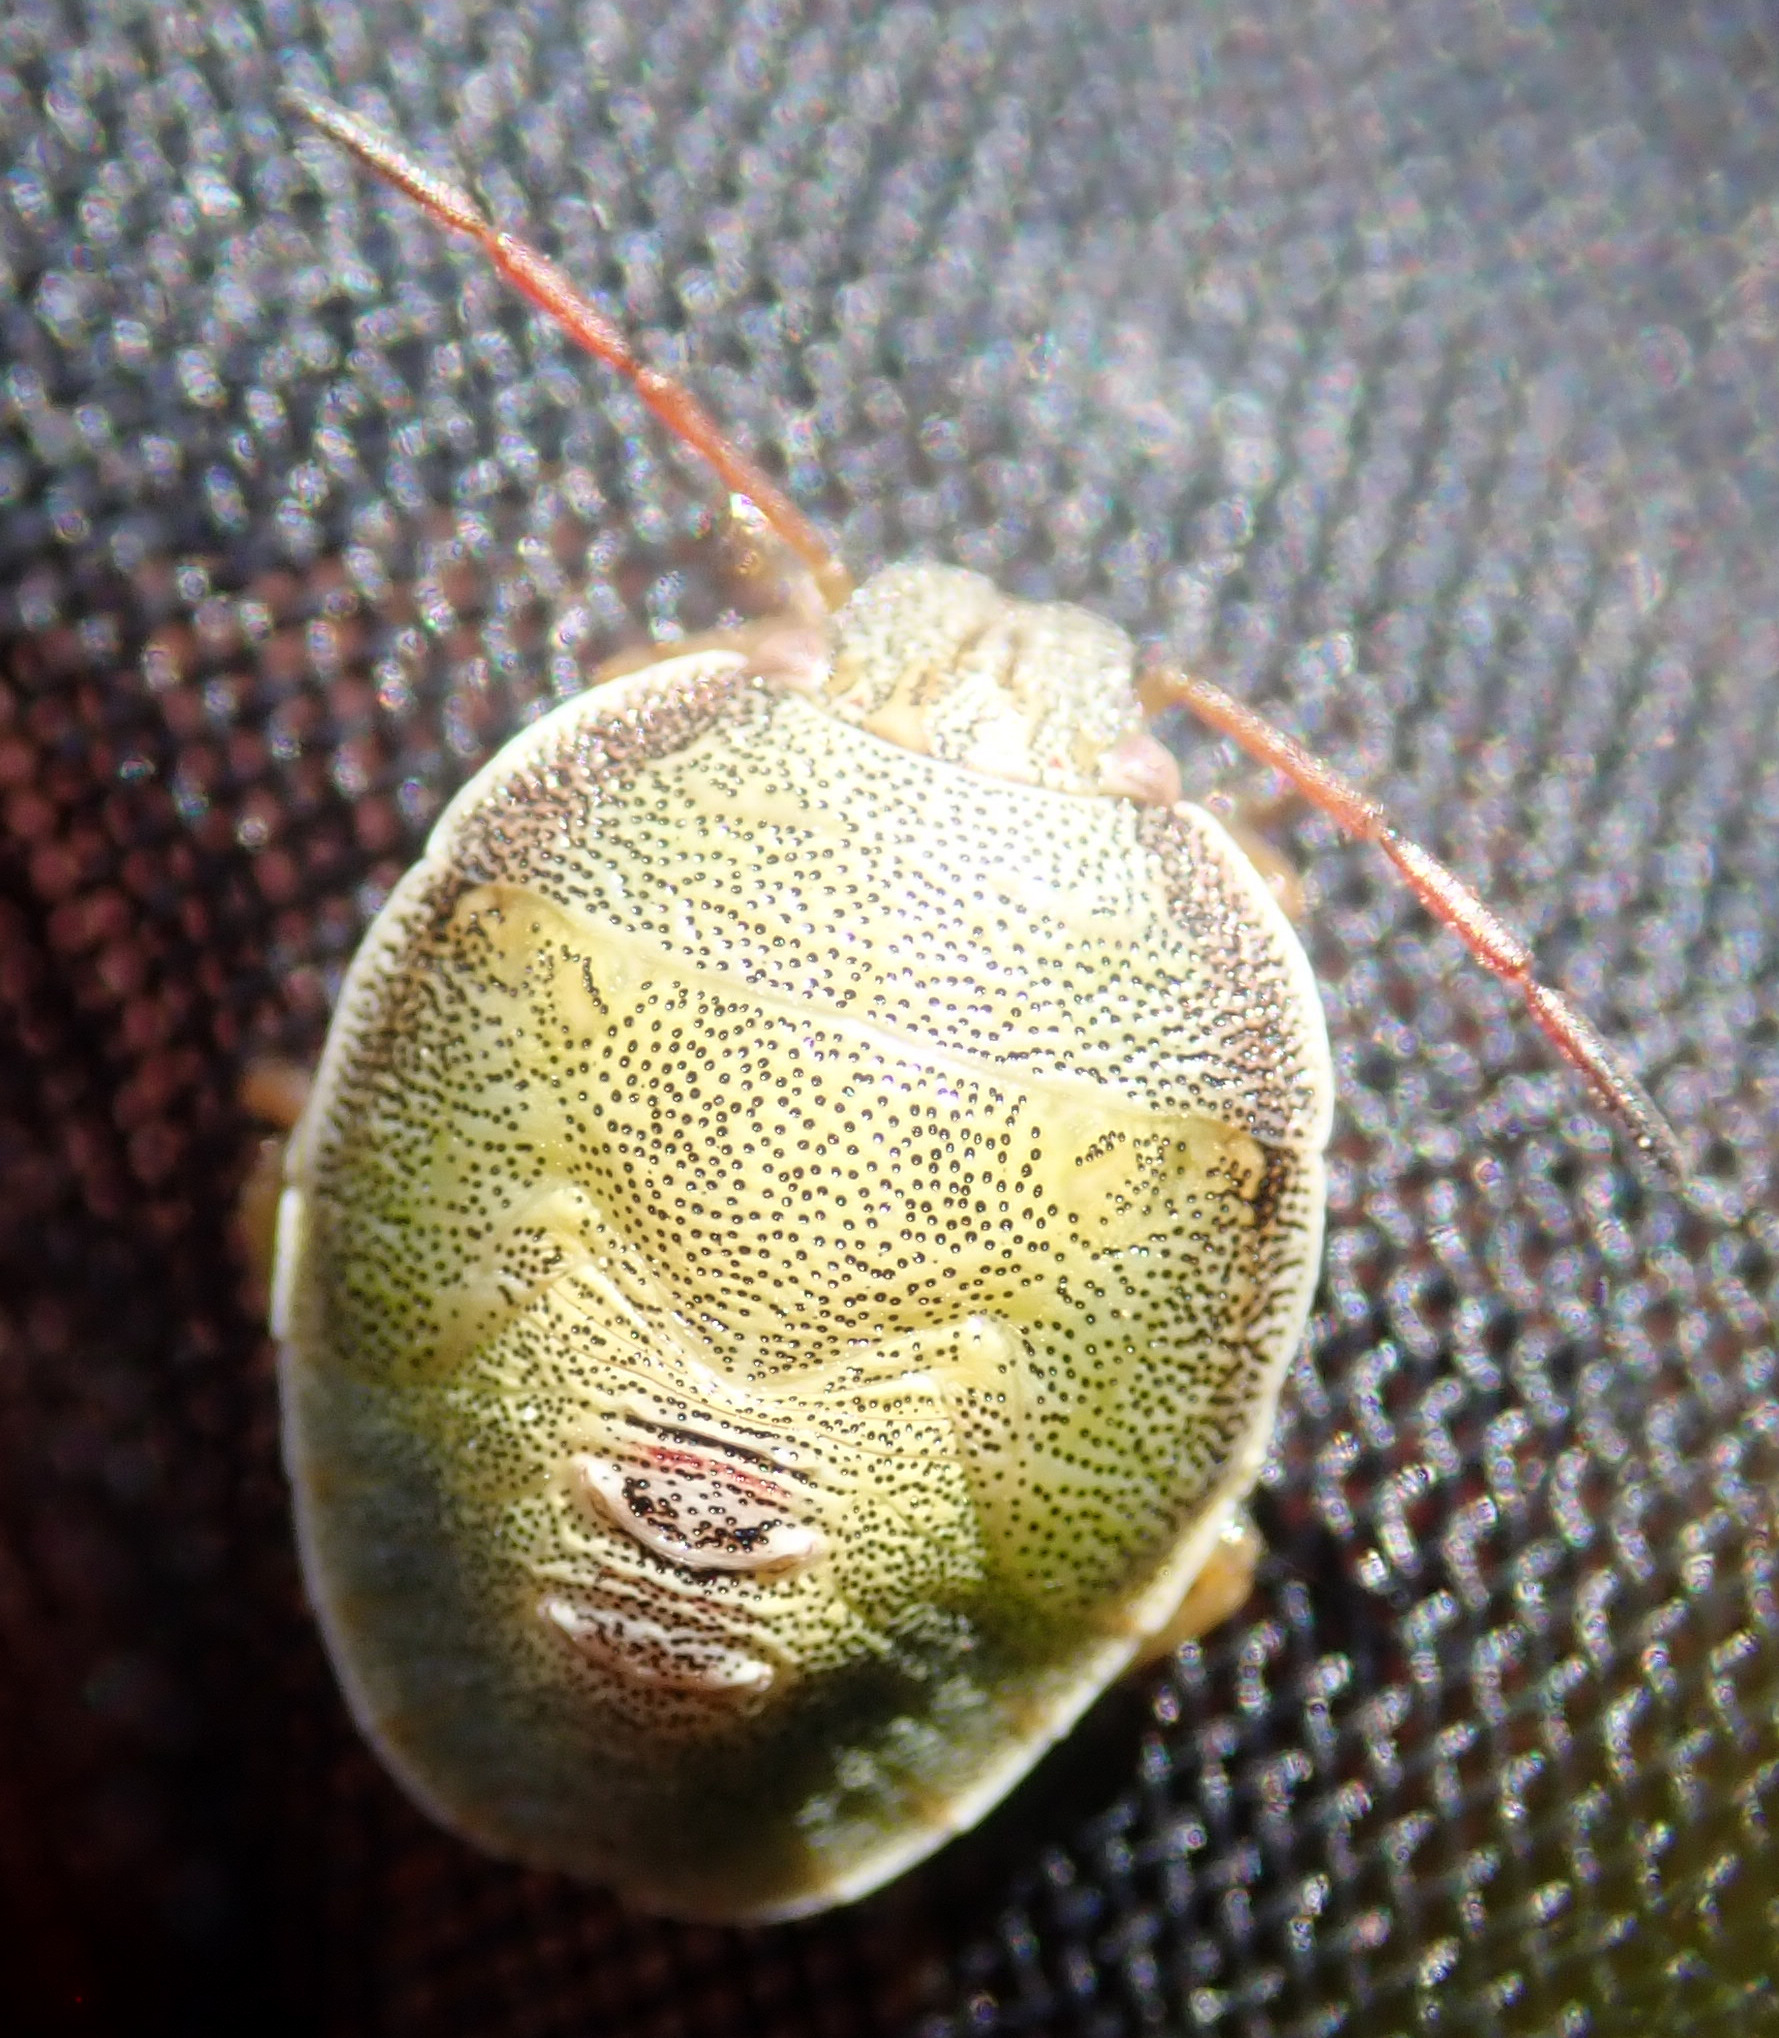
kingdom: Animalia
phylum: Arthropoda
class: Insecta
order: Hemiptera
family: Pentatomidae
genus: Piezodorus
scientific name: Piezodorus lituratus
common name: Stink bug
